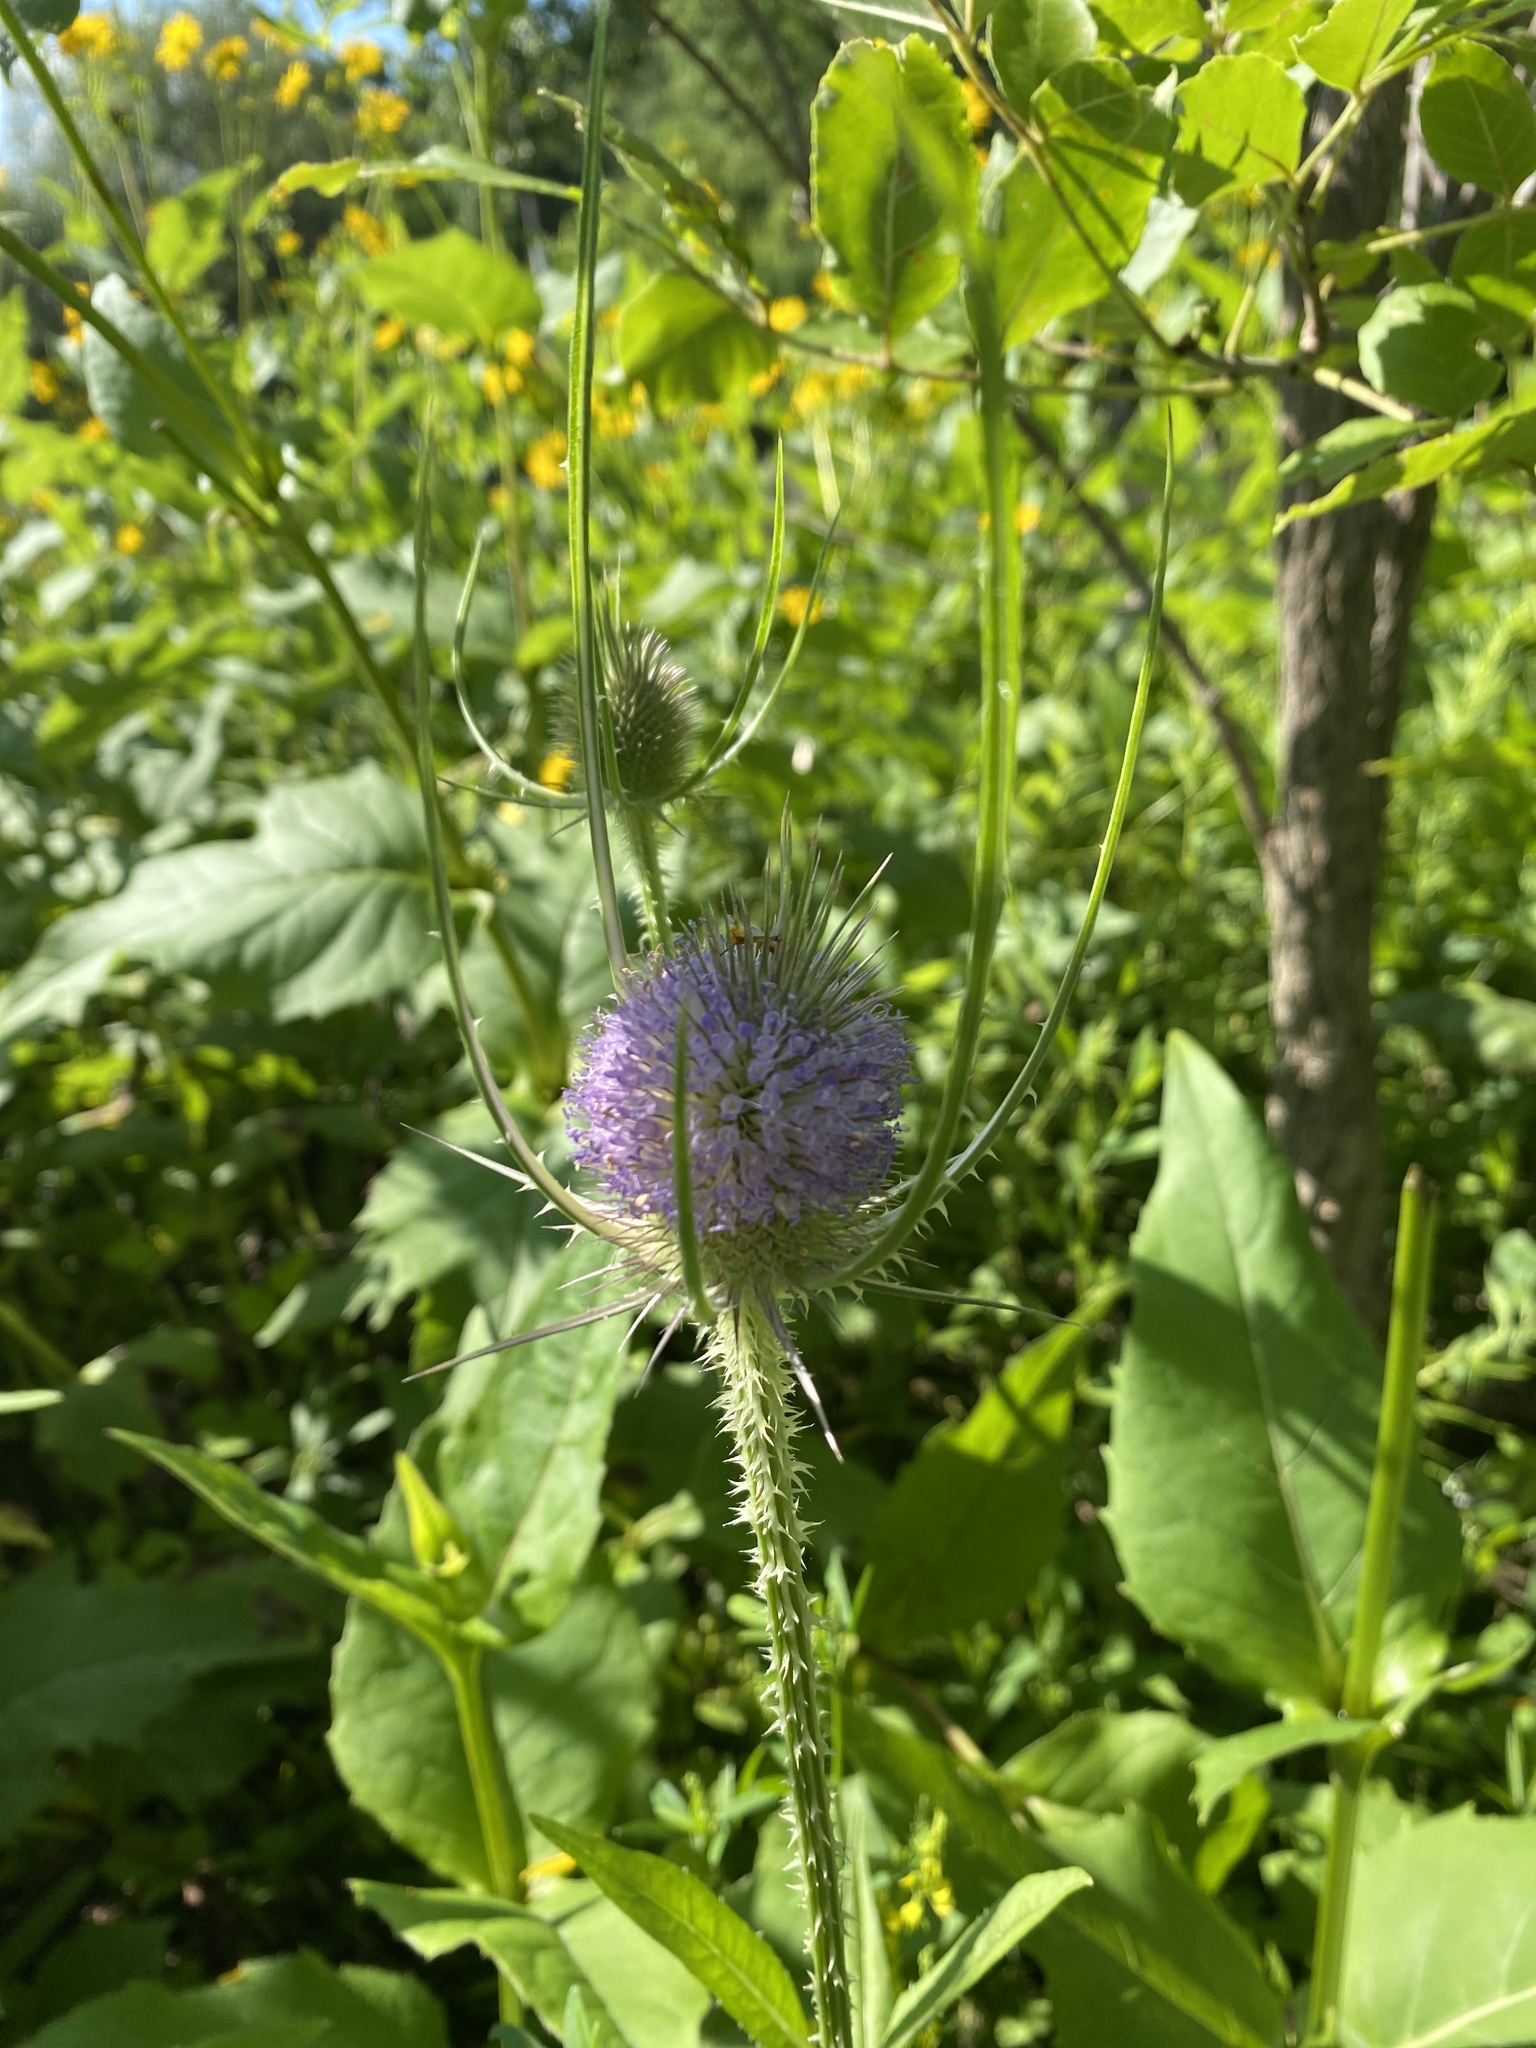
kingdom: Plantae
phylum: Tracheophyta
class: Magnoliopsida
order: Dipsacales
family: Caprifoliaceae
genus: Dipsacus
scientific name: Dipsacus fullonum
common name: Teasel
